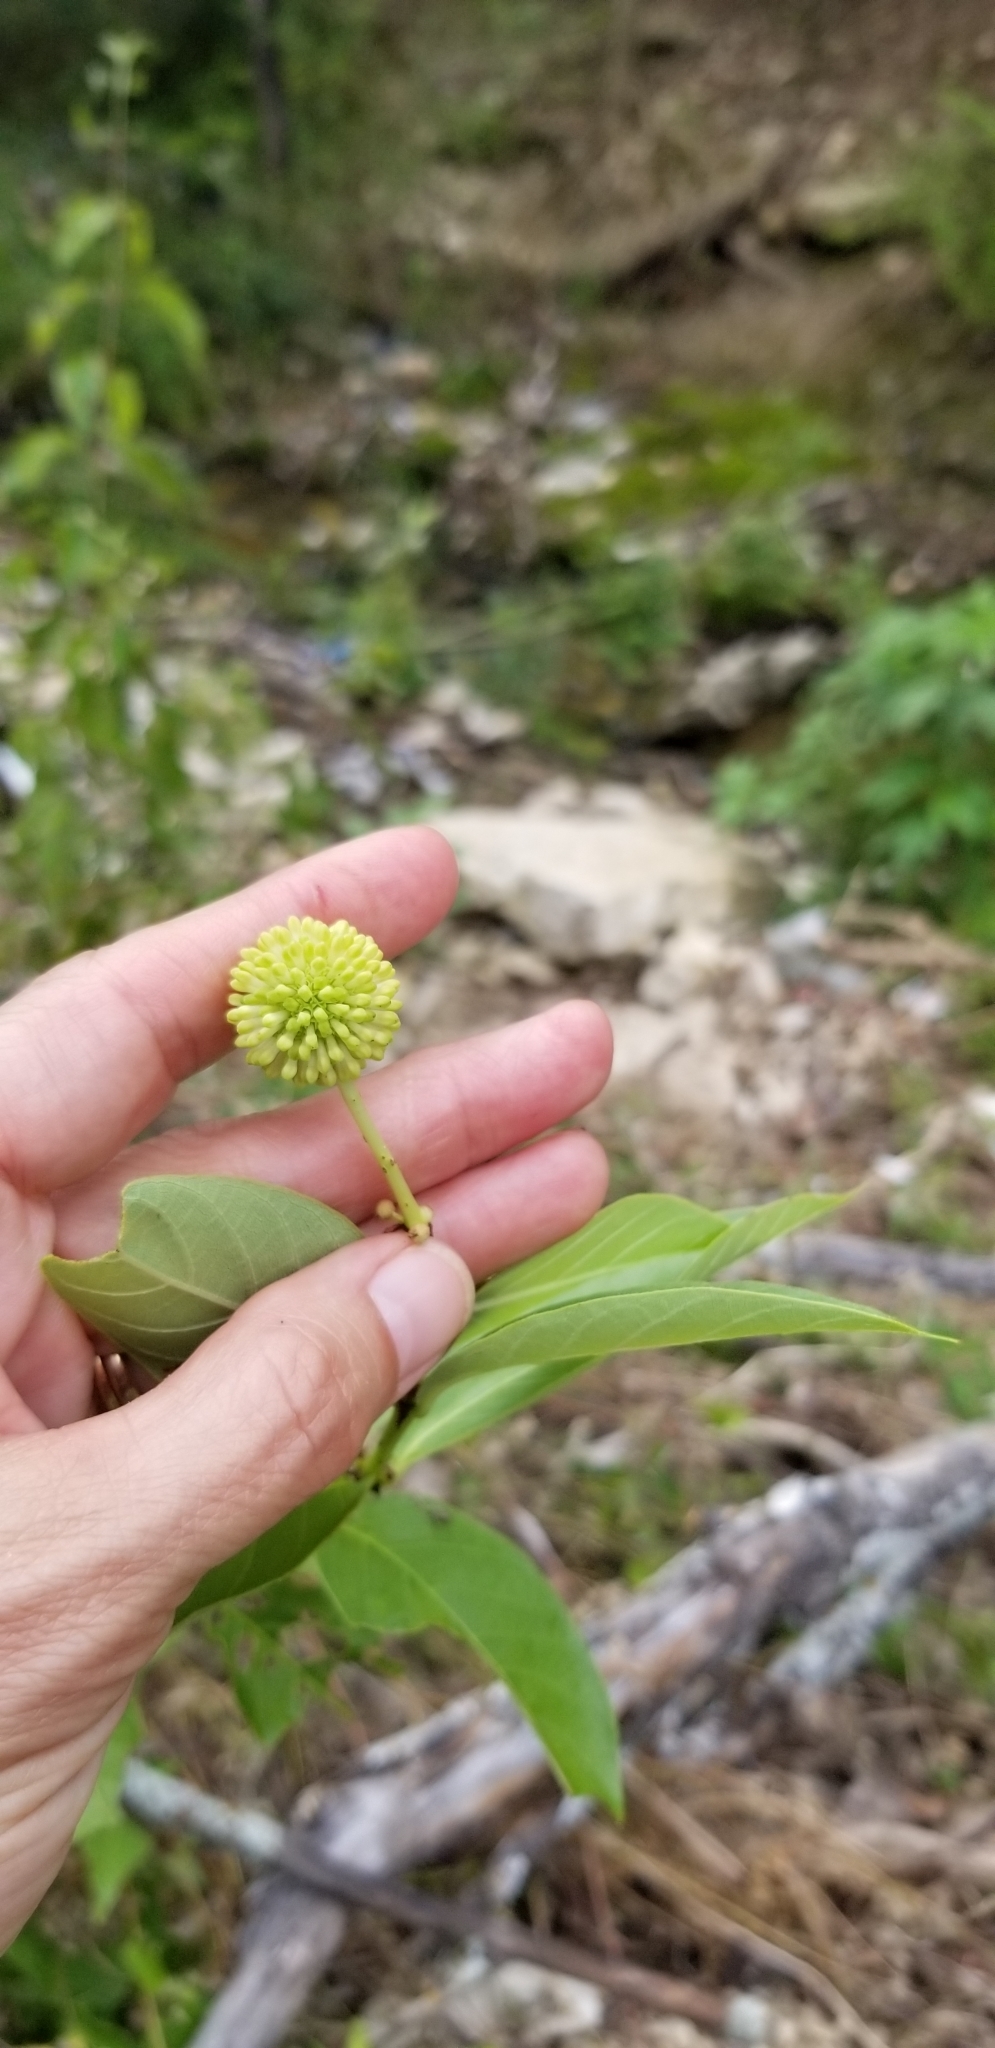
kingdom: Plantae
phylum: Tracheophyta
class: Magnoliopsida
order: Gentianales
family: Rubiaceae
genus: Cephalanthus
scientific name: Cephalanthus occidentalis
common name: Button-willow
